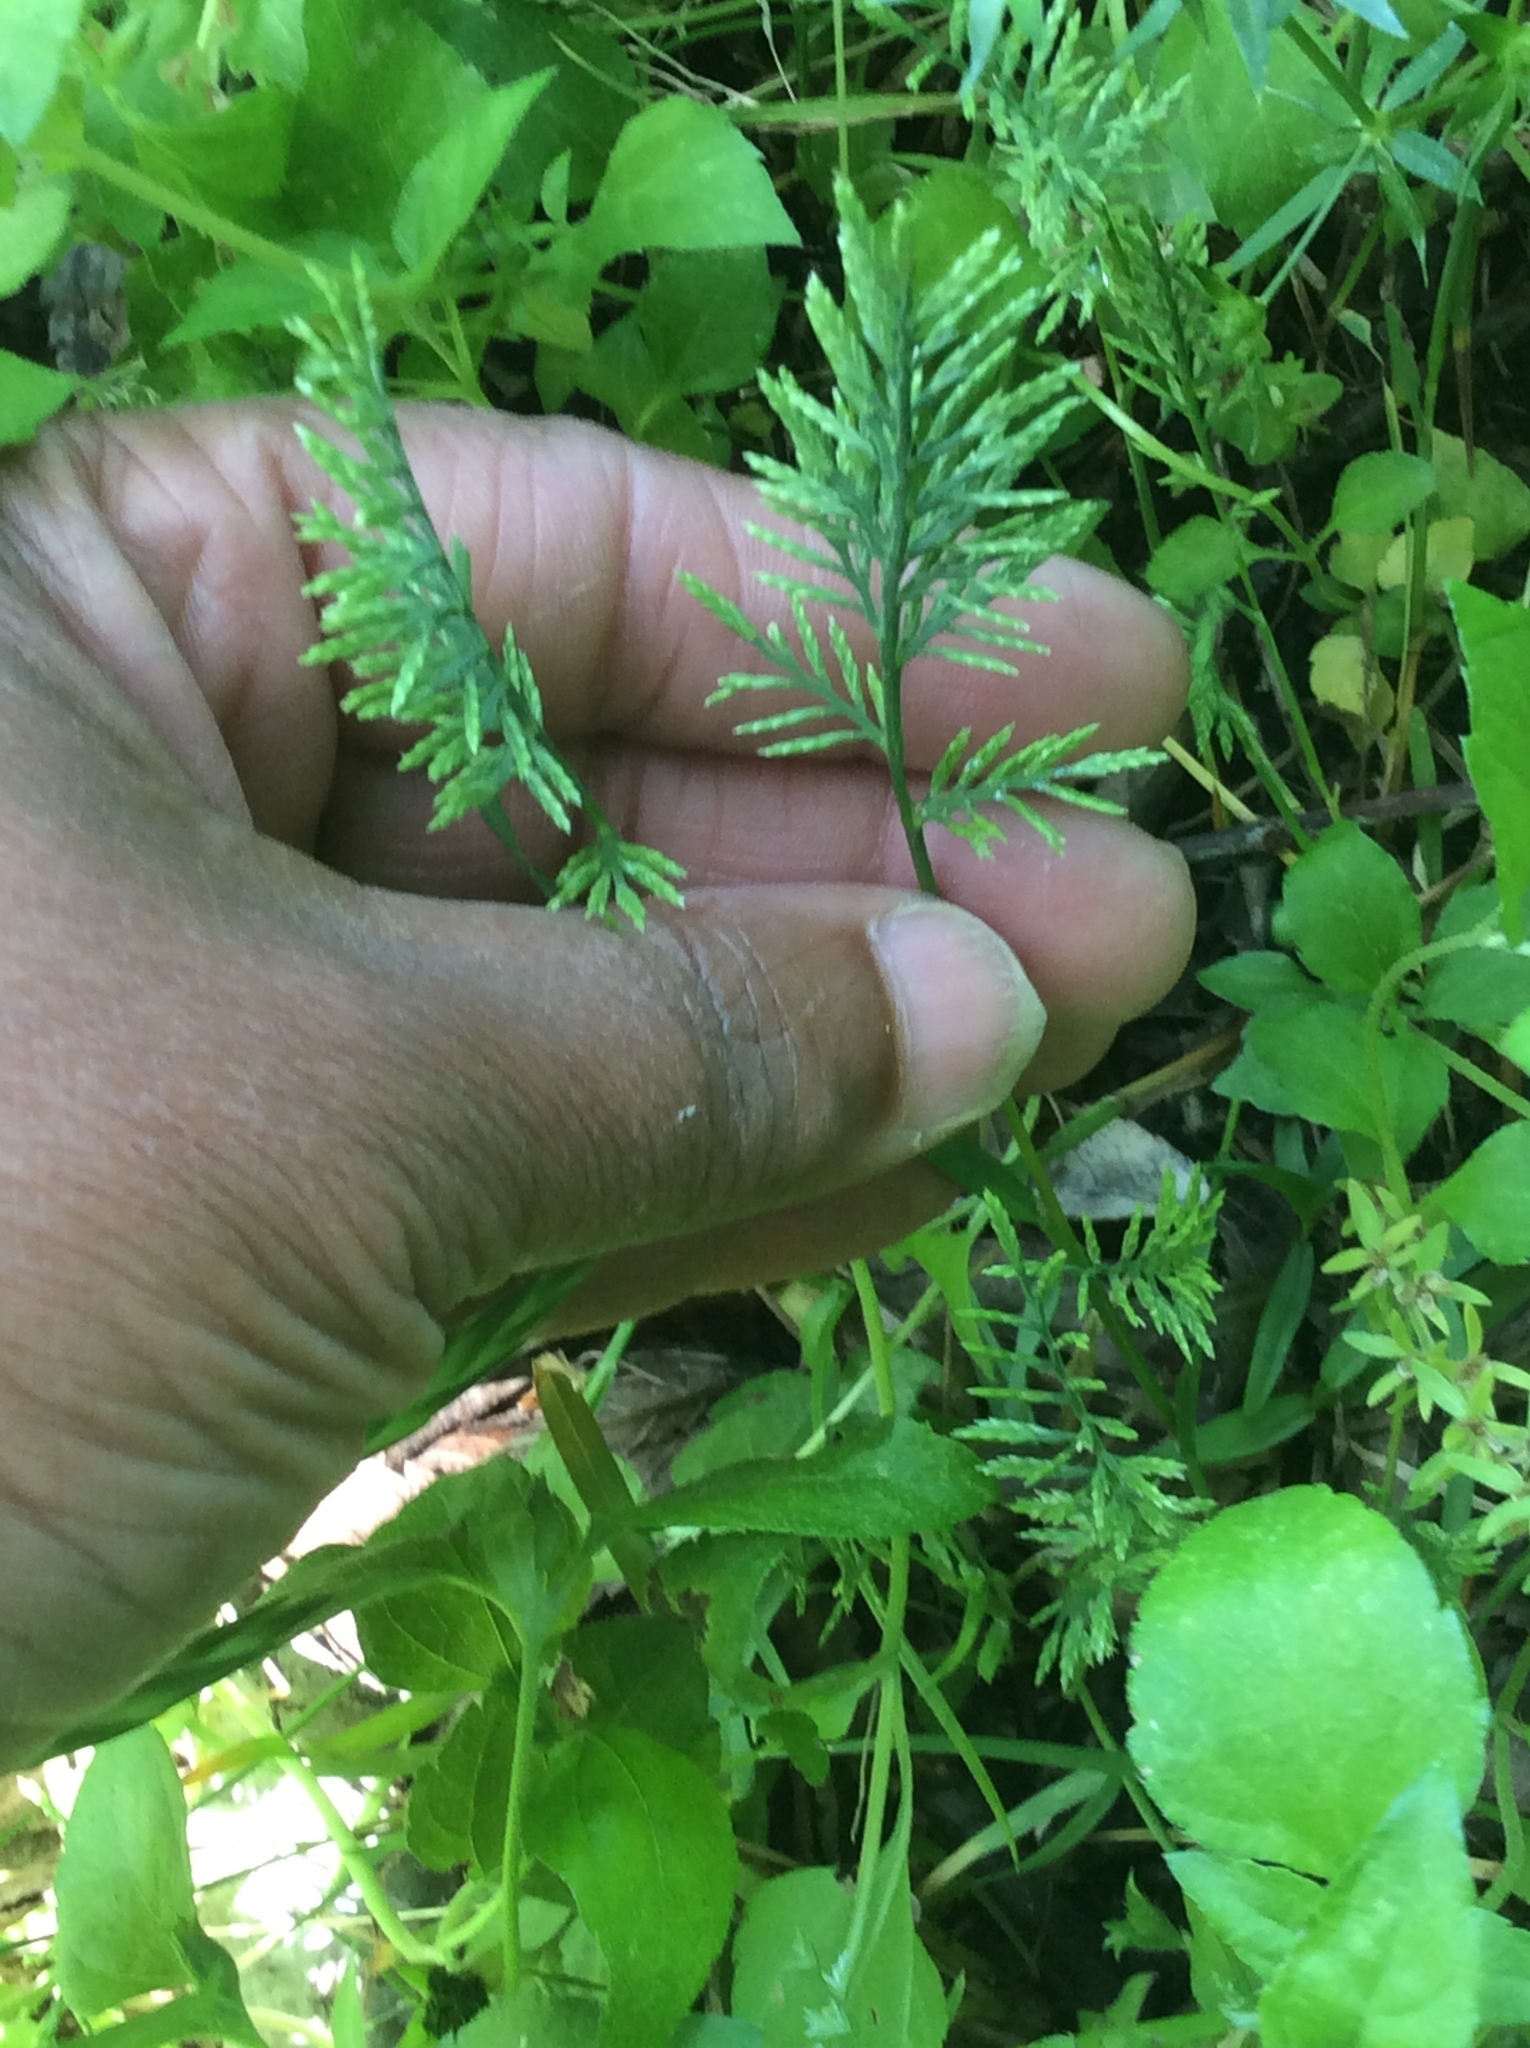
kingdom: Plantae
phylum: Tracheophyta
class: Liliopsida
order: Poales
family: Poaceae
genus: Catapodium
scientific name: Catapodium rigidum
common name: Fern-grass
